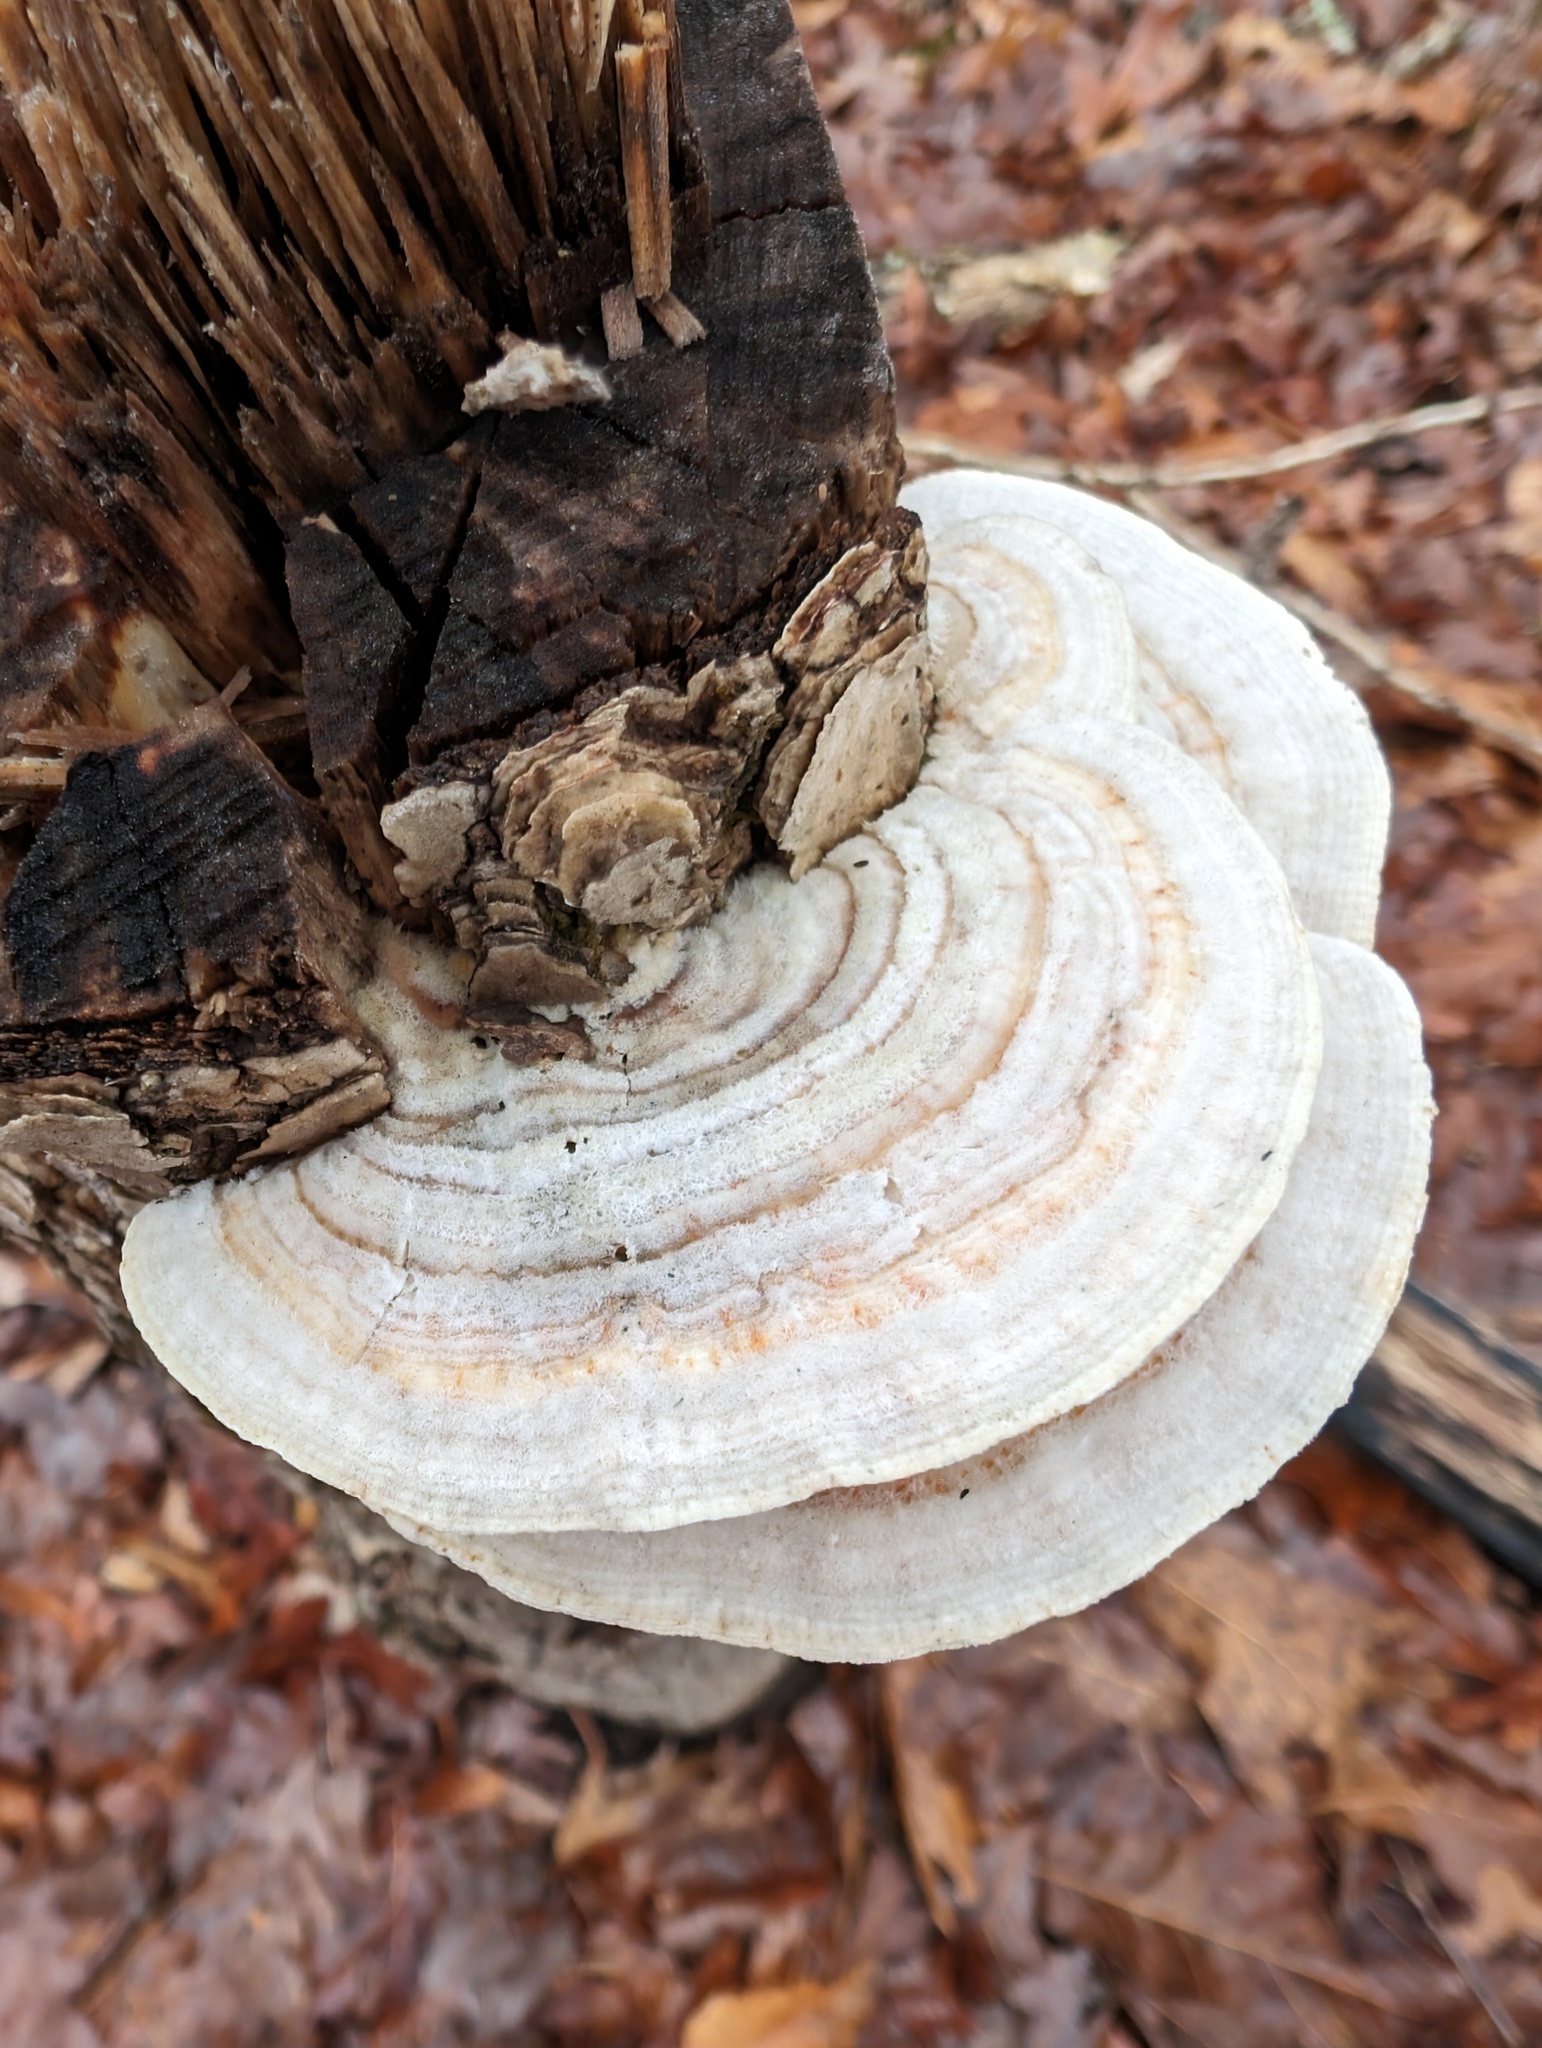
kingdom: Fungi
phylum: Basidiomycota
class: Agaricomycetes
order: Polyporales
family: Polyporaceae
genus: Lenzites
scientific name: Lenzites betulinus
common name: Birch mazegill
